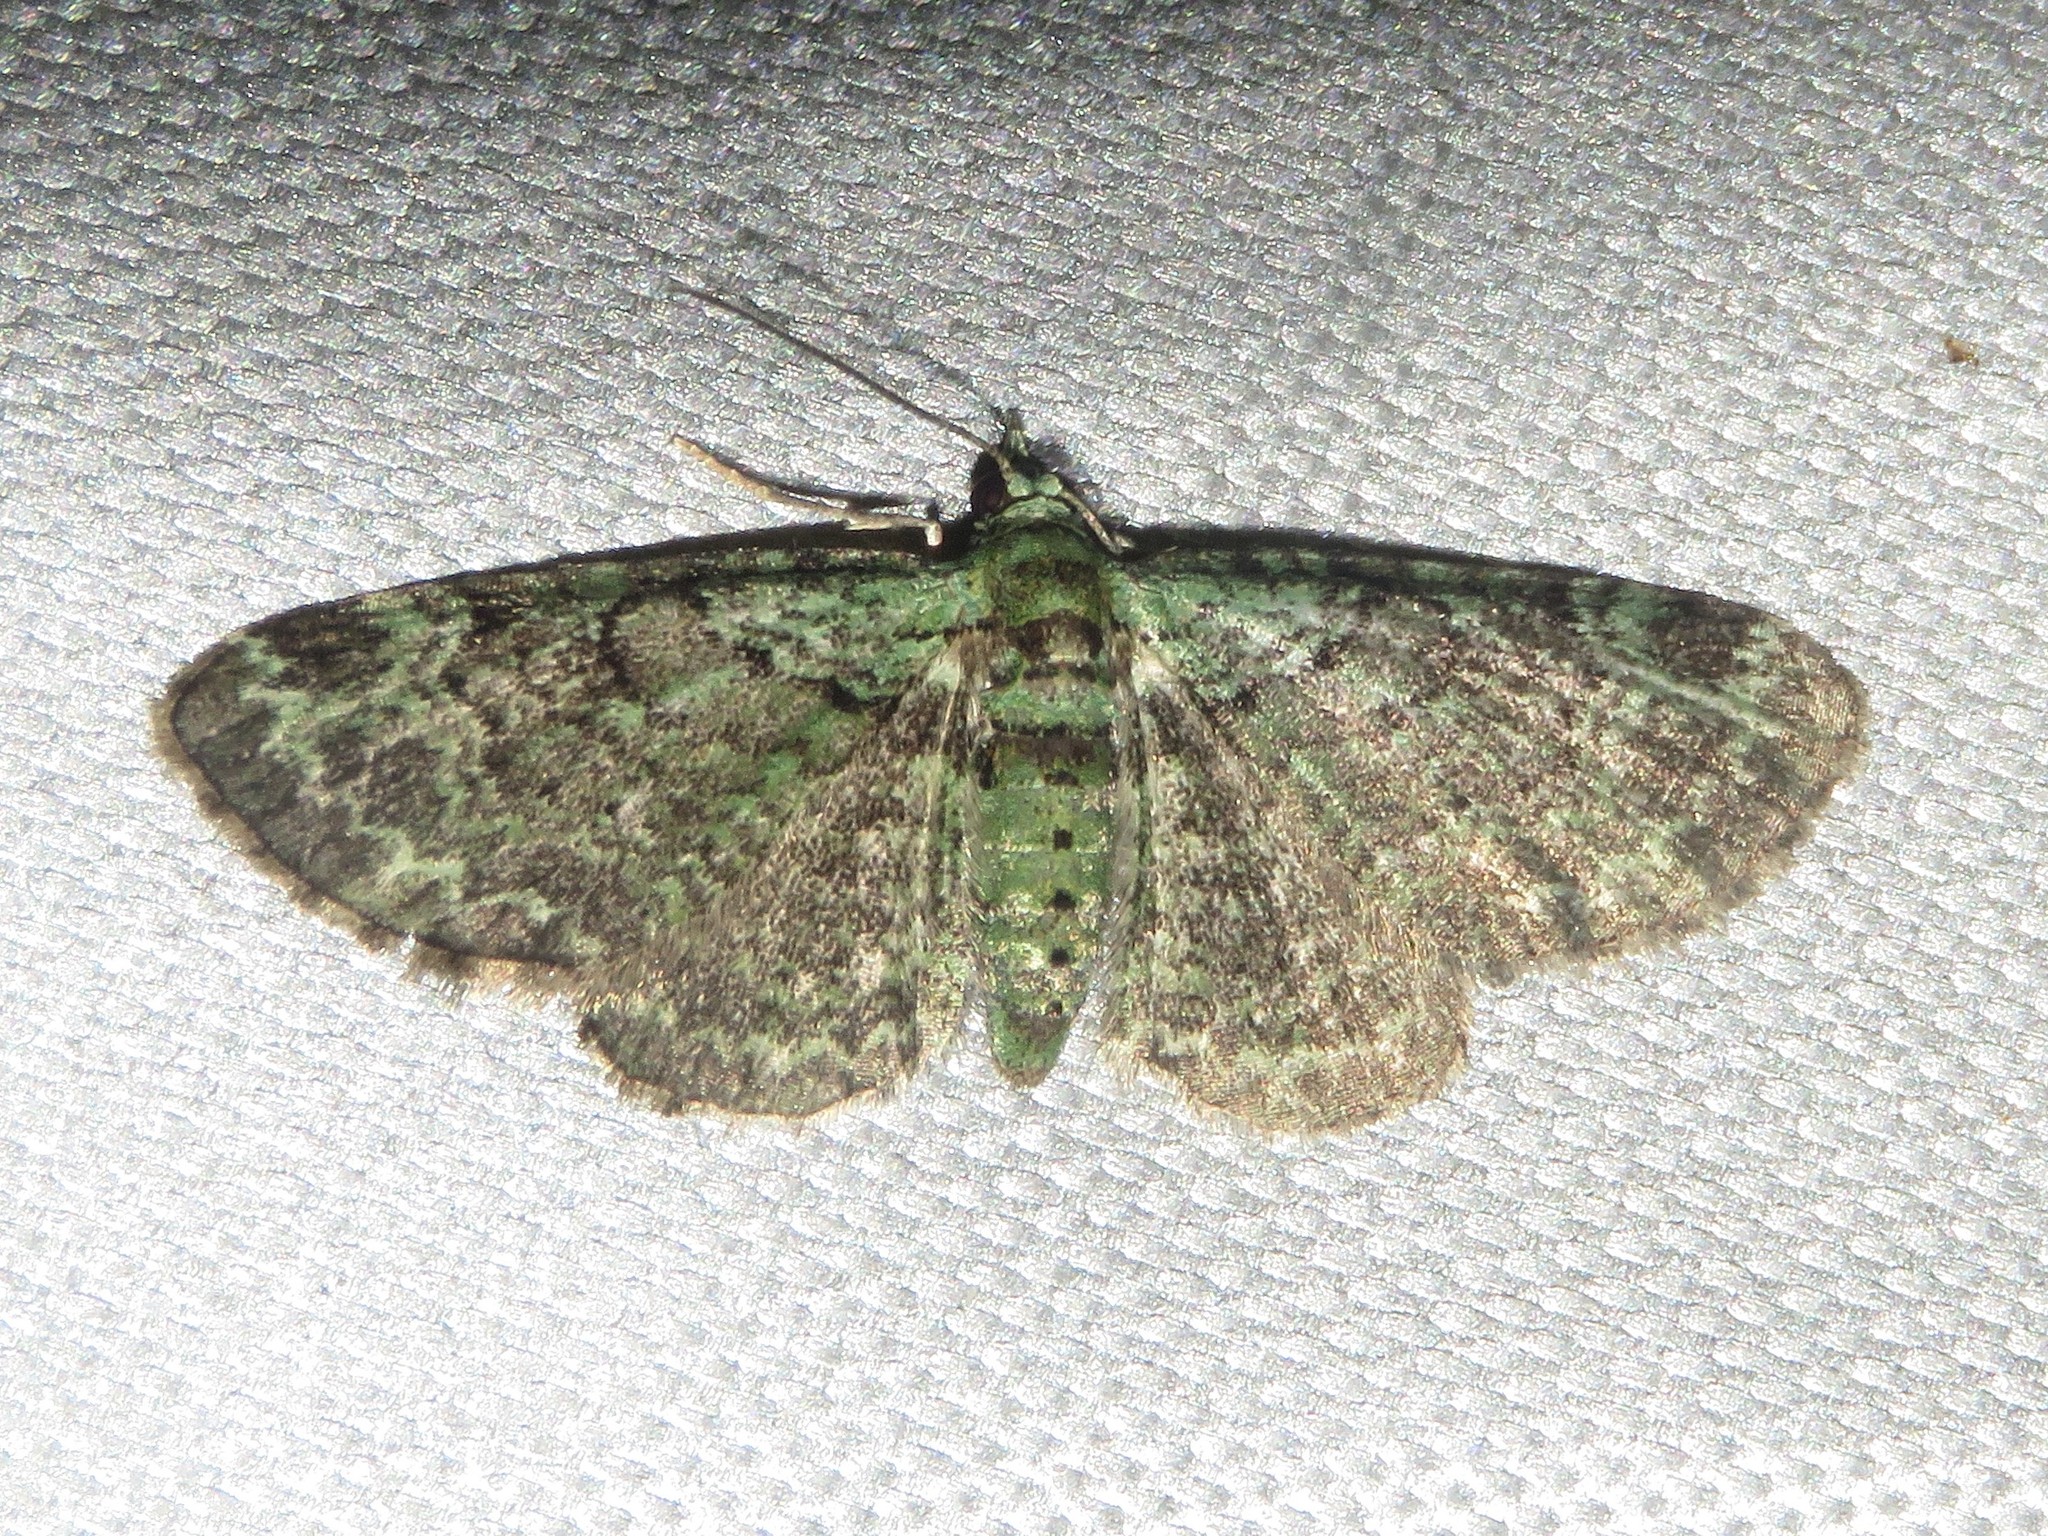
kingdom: Animalia
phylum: Arthropoda
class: Insecta
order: Lepidoptera
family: Geometridae
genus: Pasiphila
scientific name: Pasiphila rectangulata
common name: Green pug
